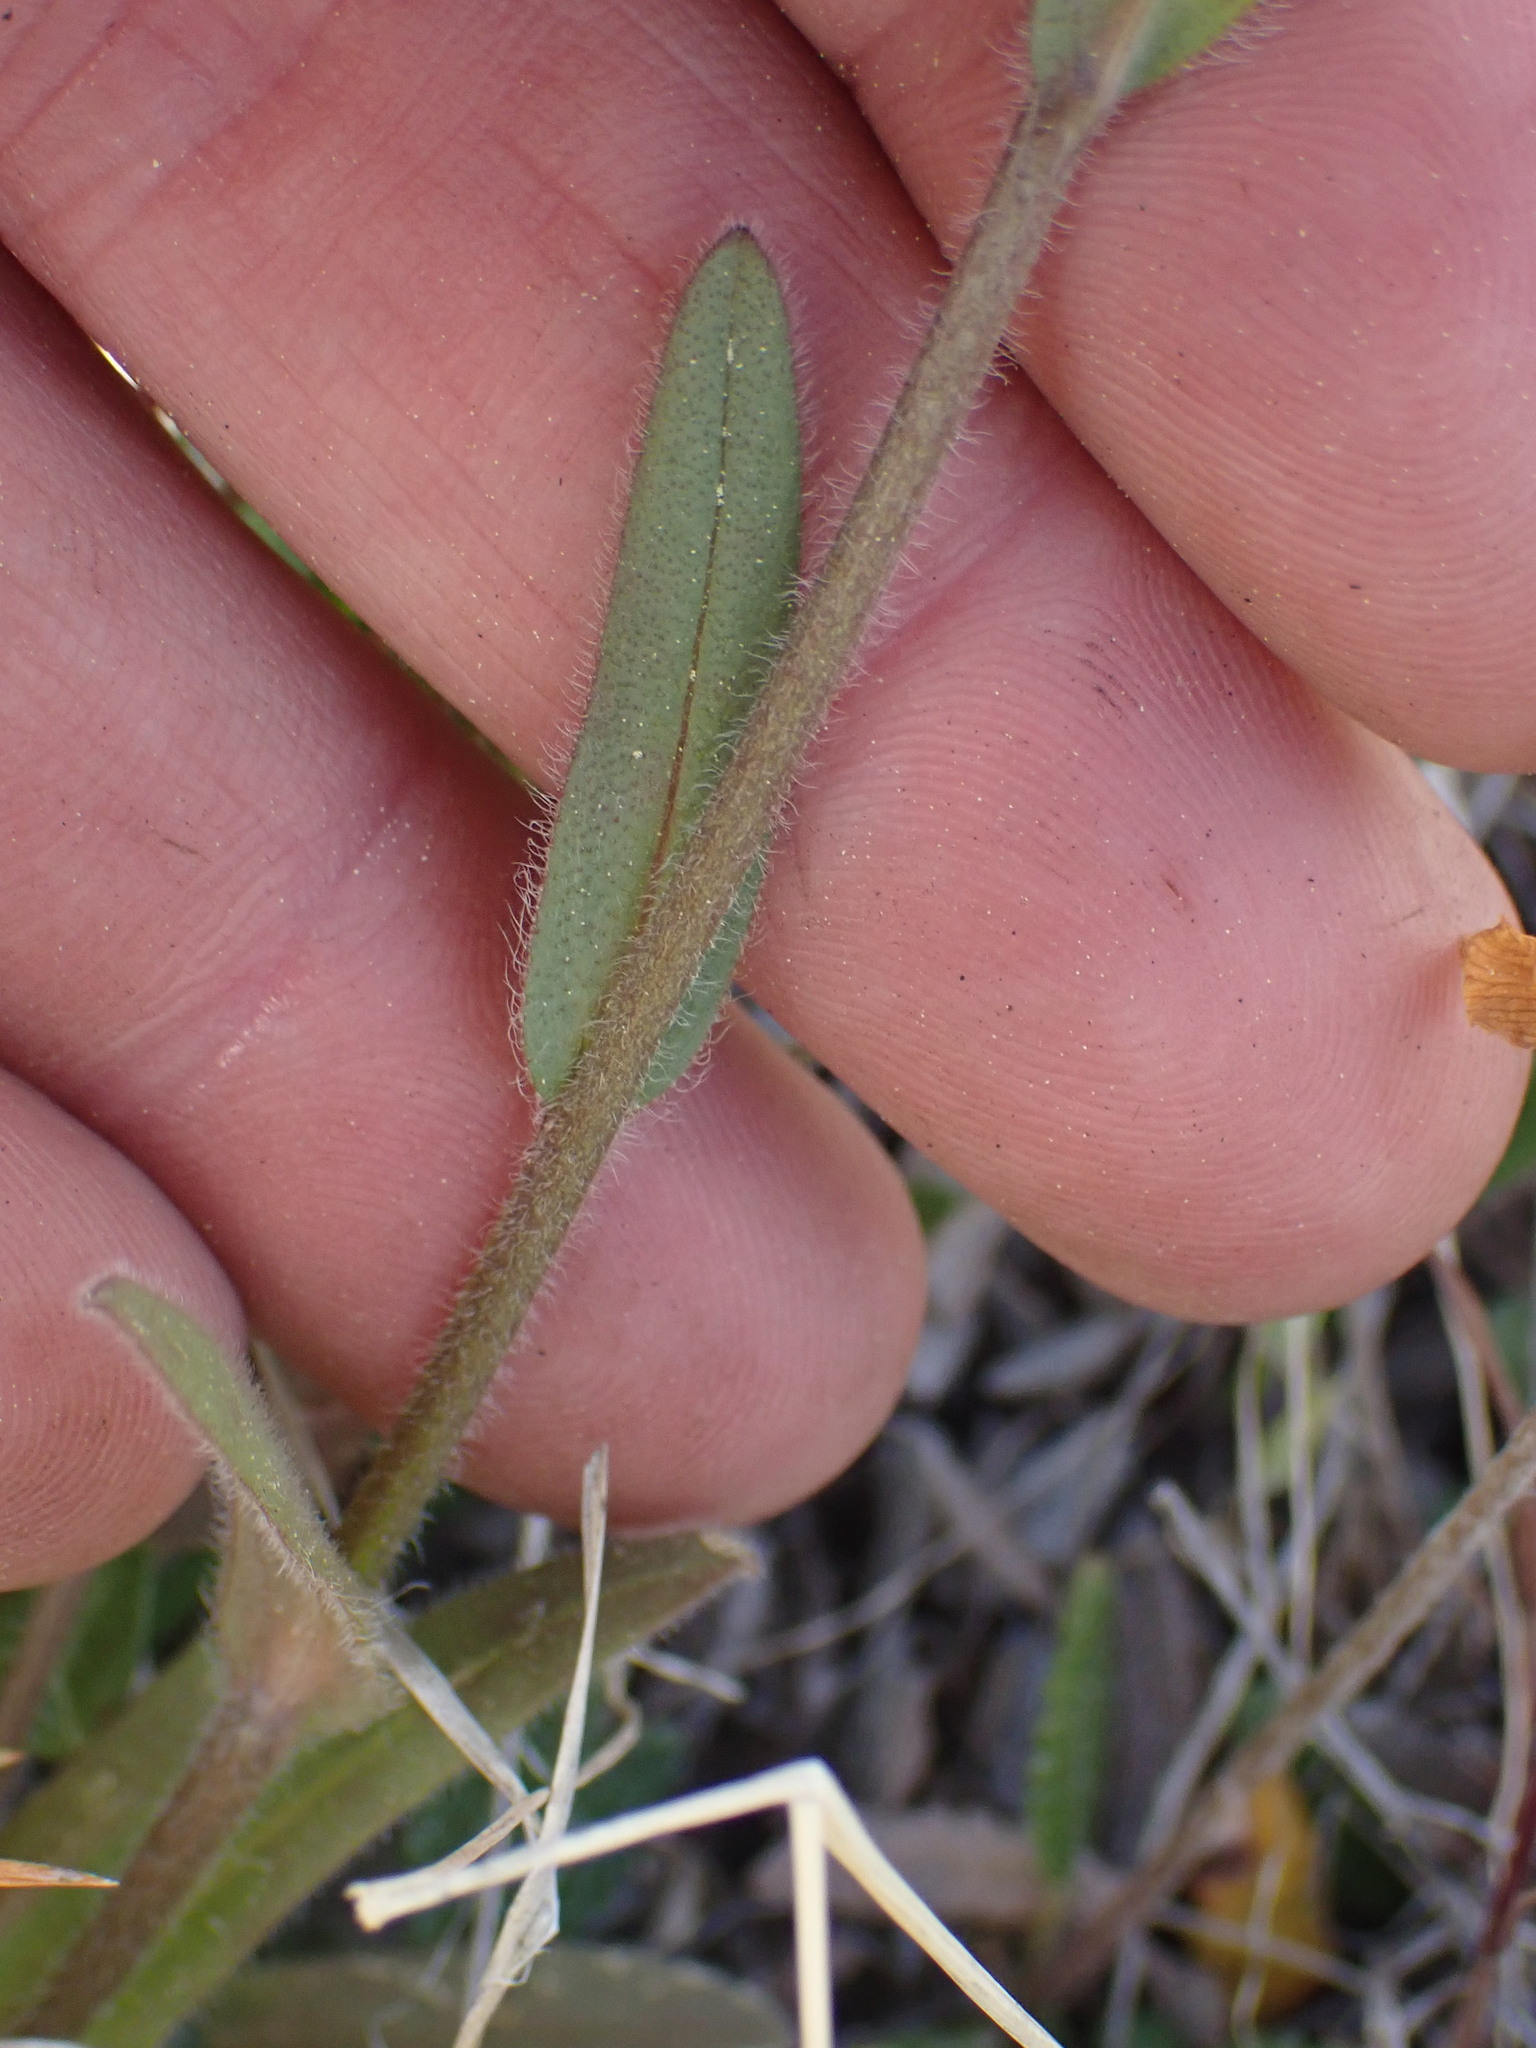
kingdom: Plantae
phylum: Tracheophyta
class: Magnoliopsida
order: Boraginales
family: Boraginaceae
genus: Myosotis
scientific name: Myosotis asiatica
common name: Asian forget-me-not
